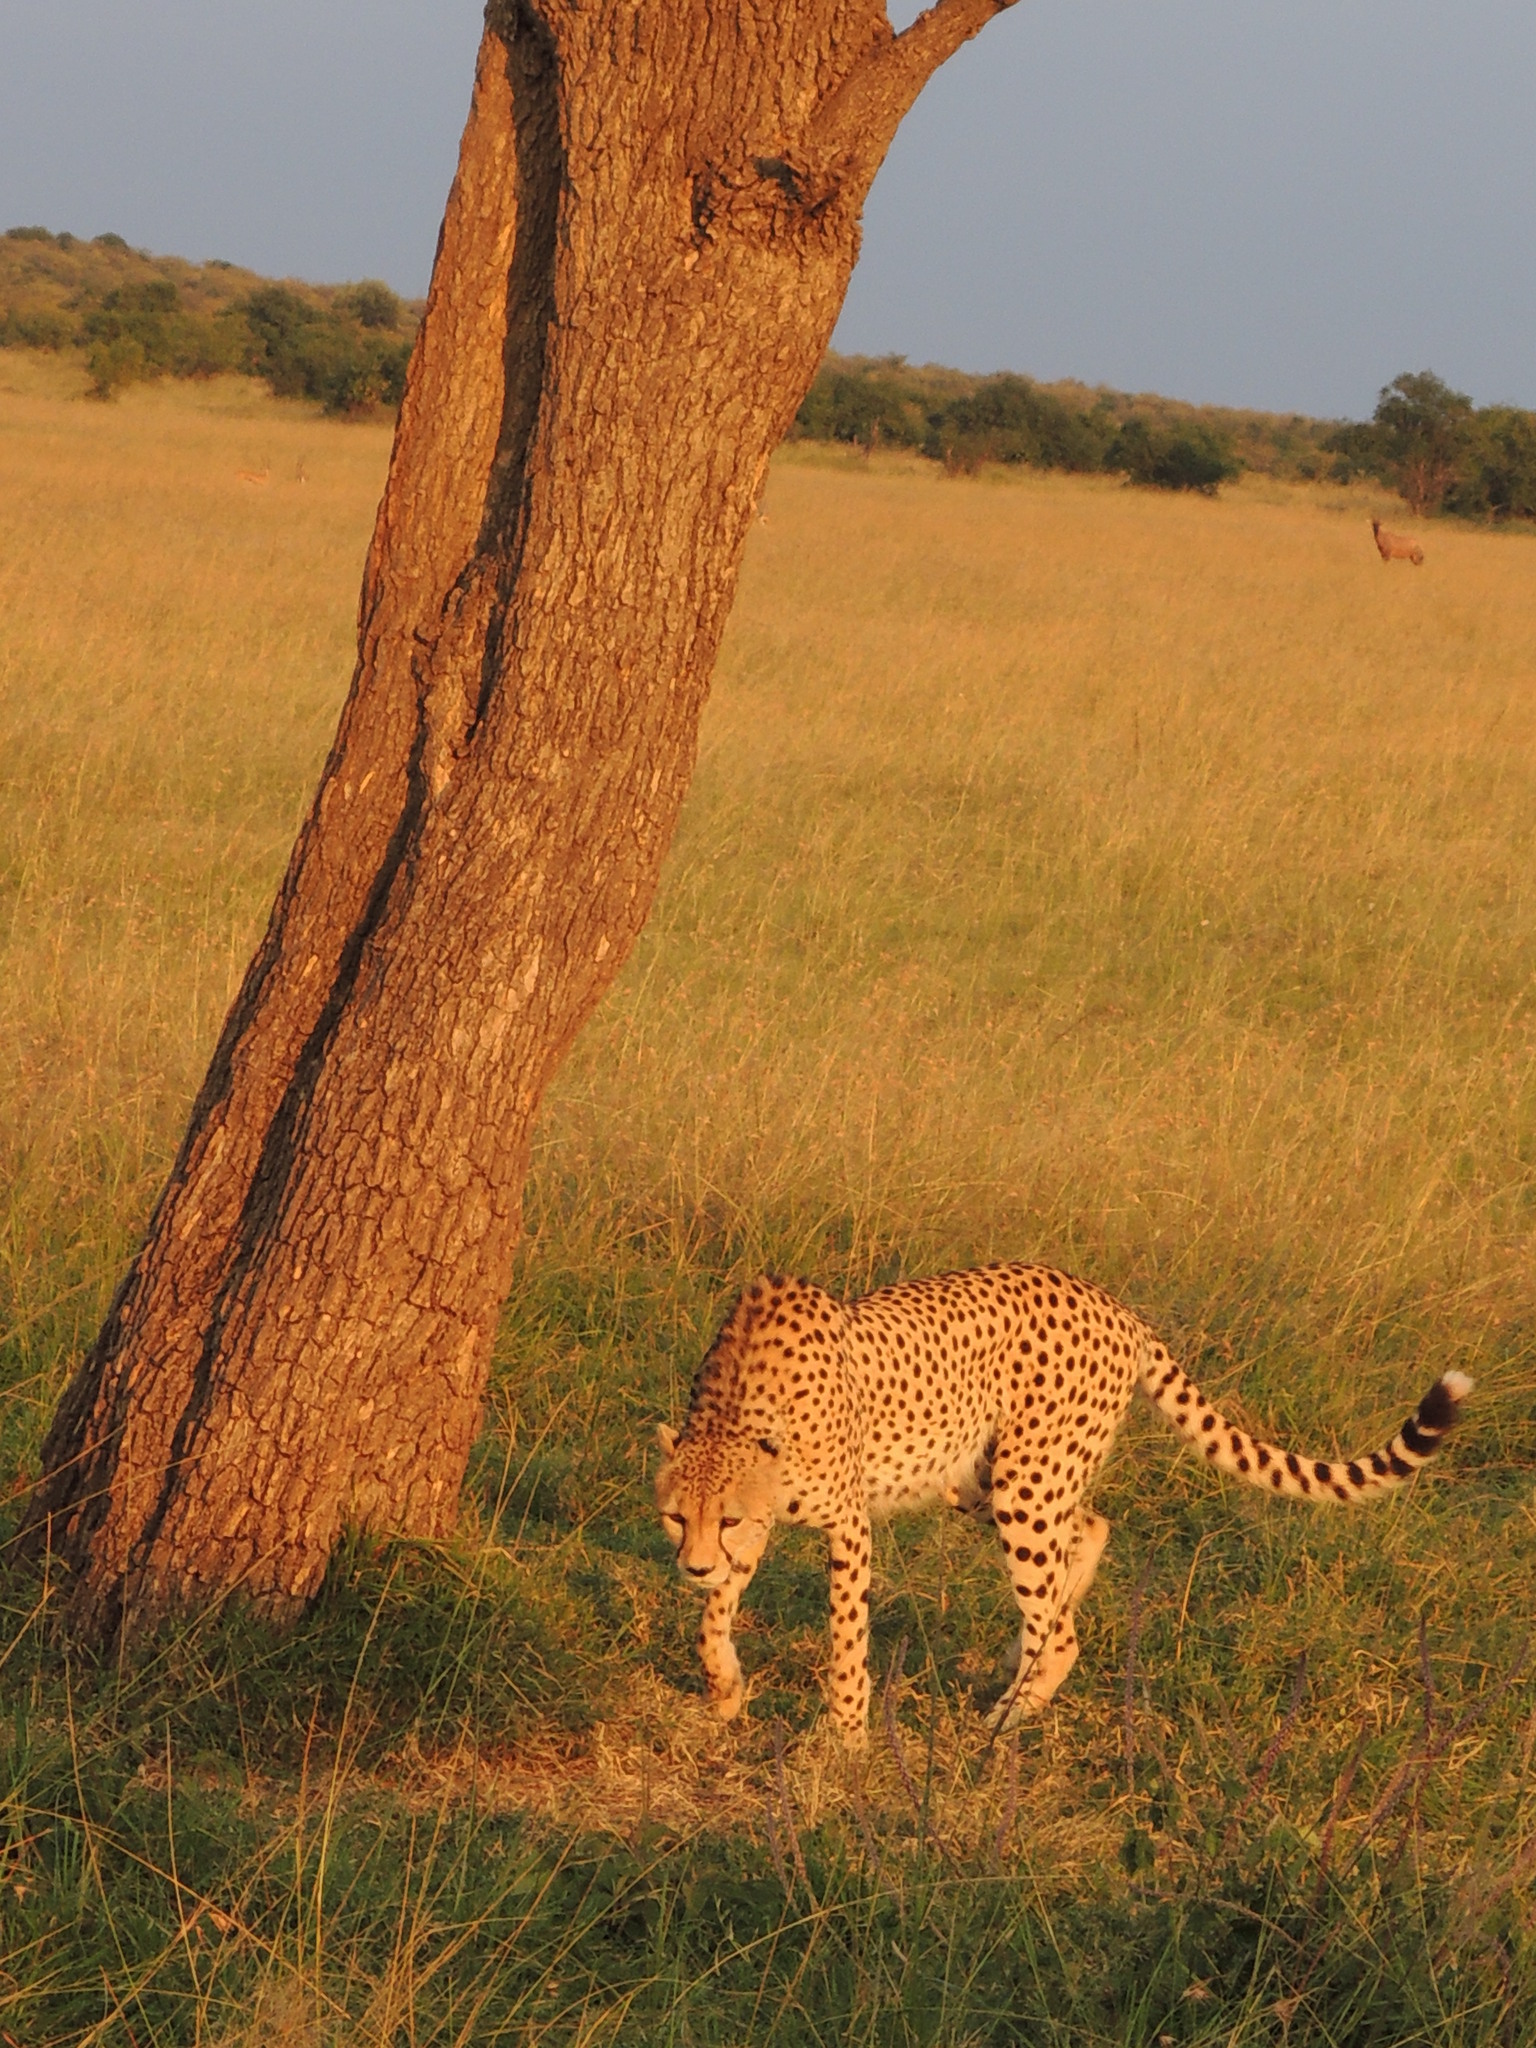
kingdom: Animalia
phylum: Chordata
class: Mammalia
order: Carnivora
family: Felidae
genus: Acinonyx
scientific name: Acinonyx jubatus
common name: Cheetah
